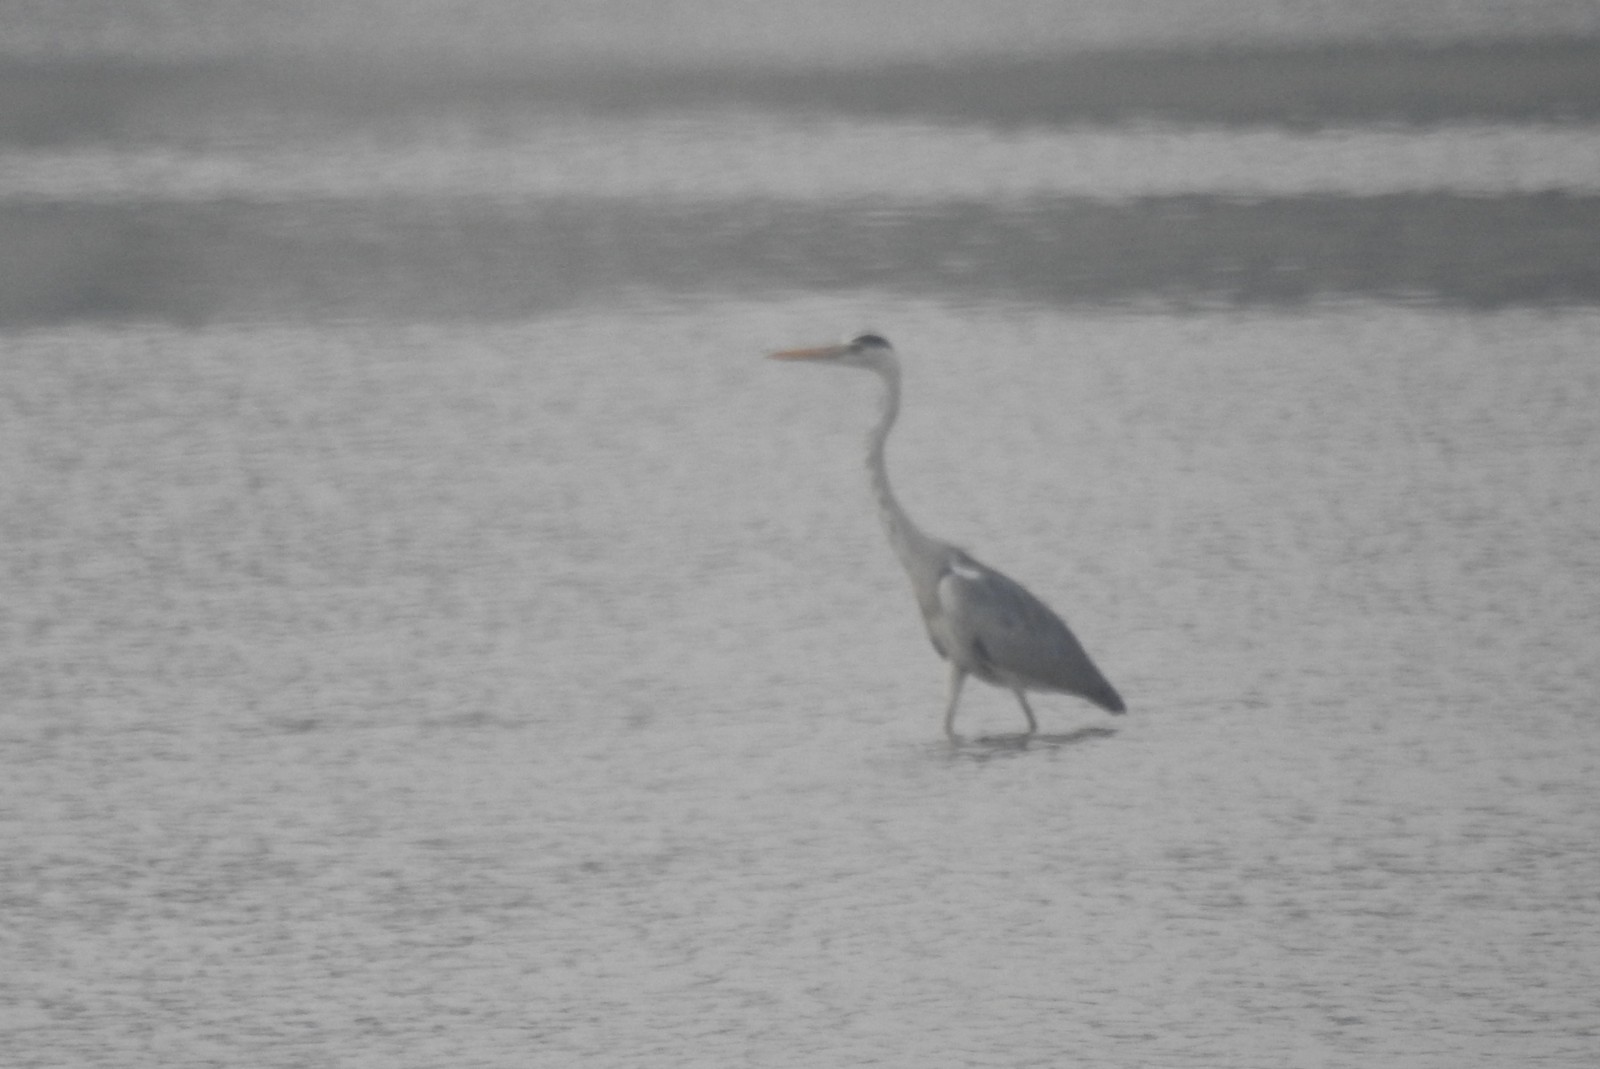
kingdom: Animalia
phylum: Chordata
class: Aves
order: Pelecaniformes
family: Ardeidae
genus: Ardea
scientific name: Ardea cinerea
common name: Grey heron
